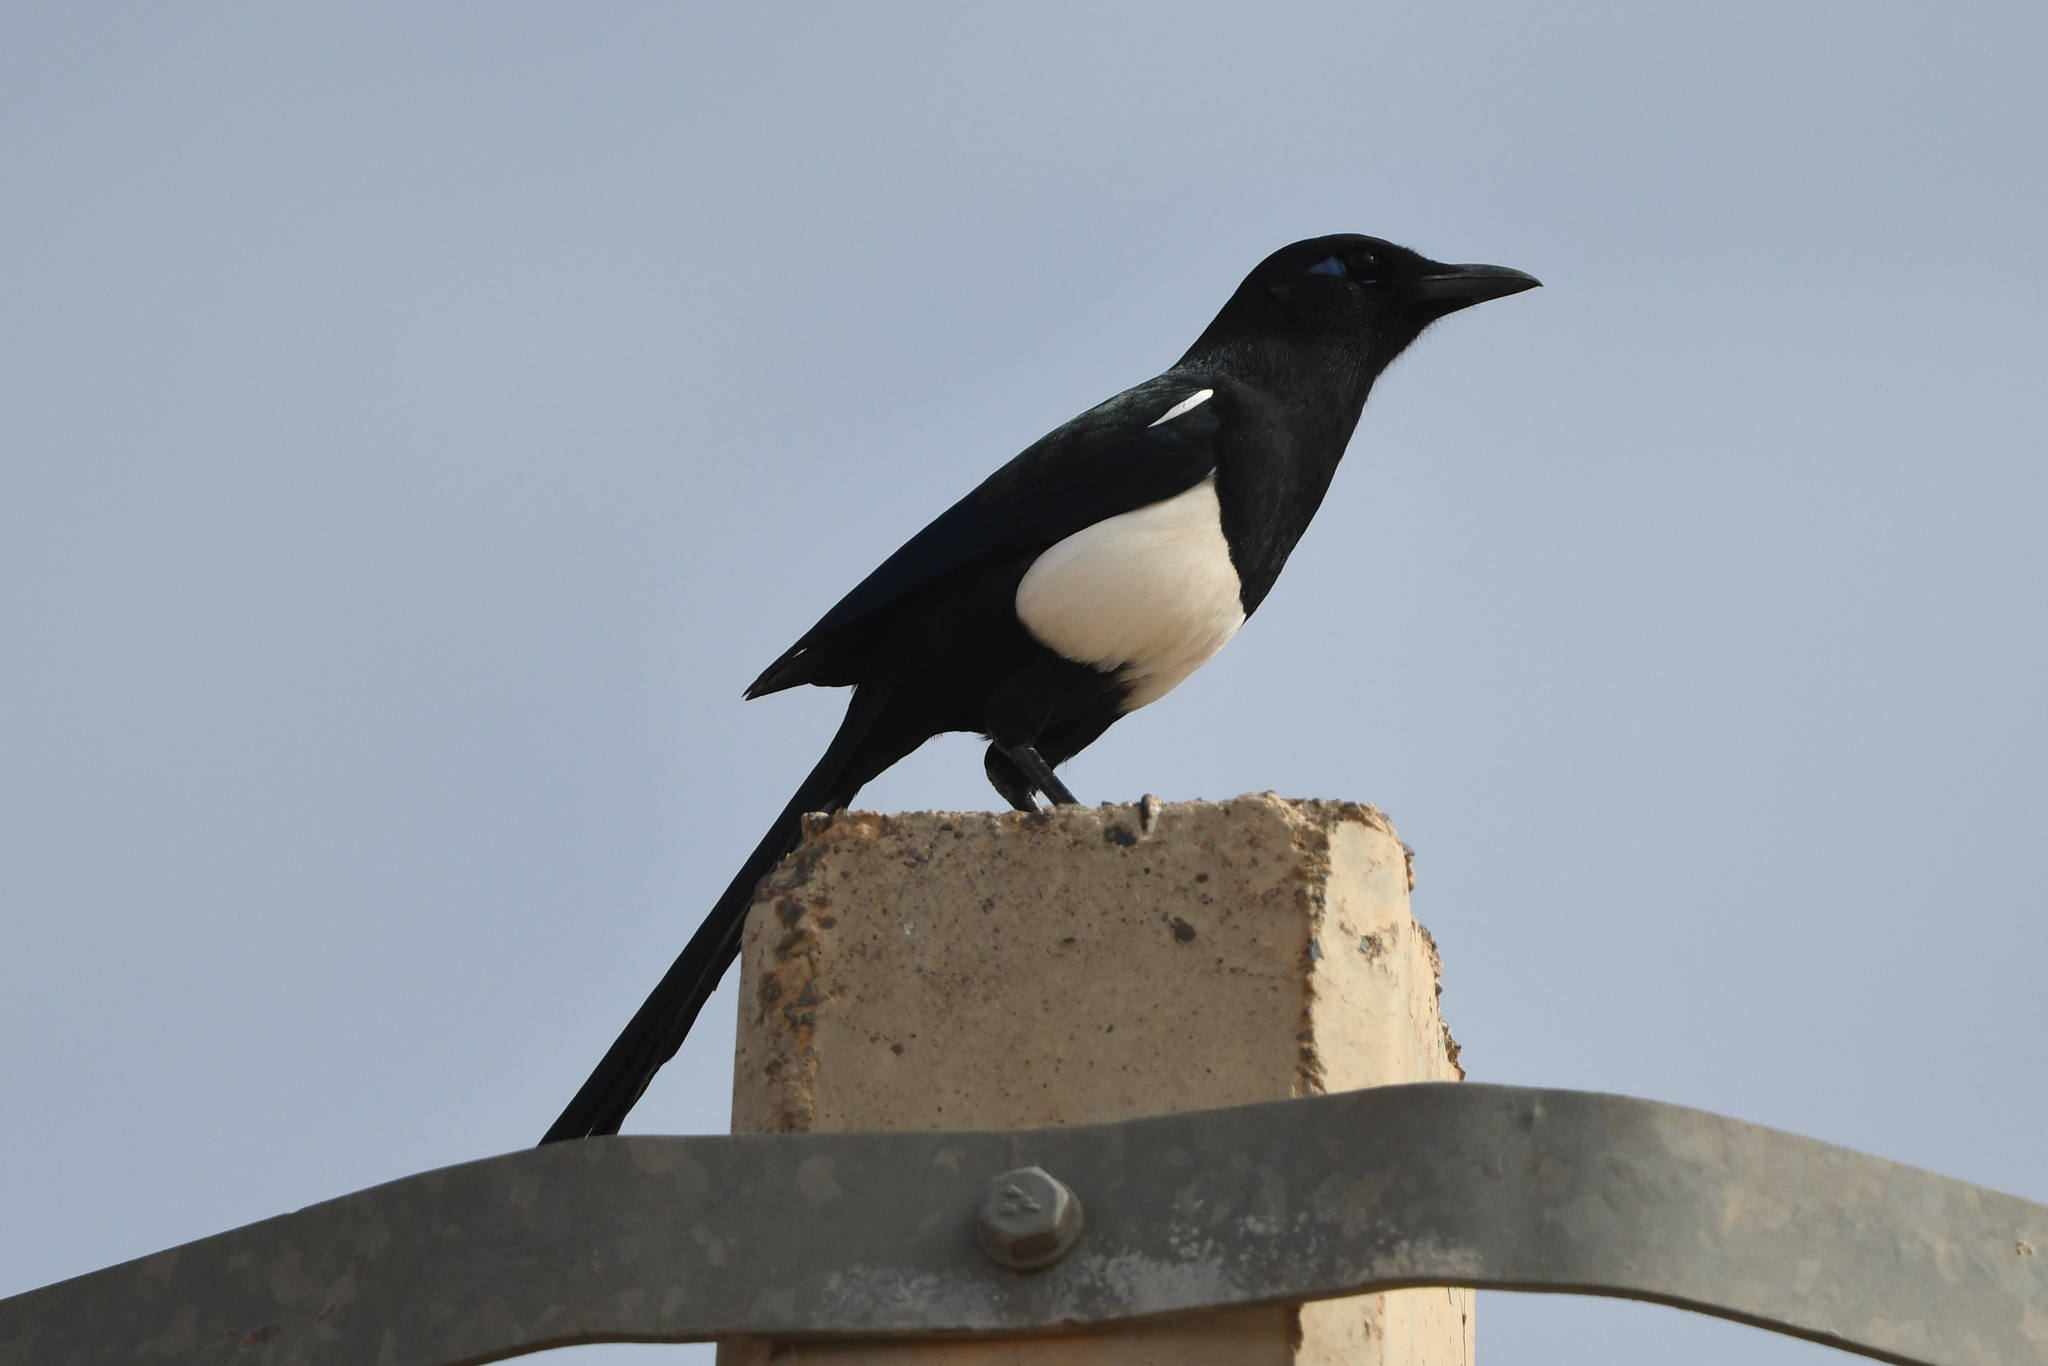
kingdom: Animalia
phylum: Chordata
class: Aves
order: Passeriformes
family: Corvidae
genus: Pica
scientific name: Pica mauritanica
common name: Maghreb magpie
